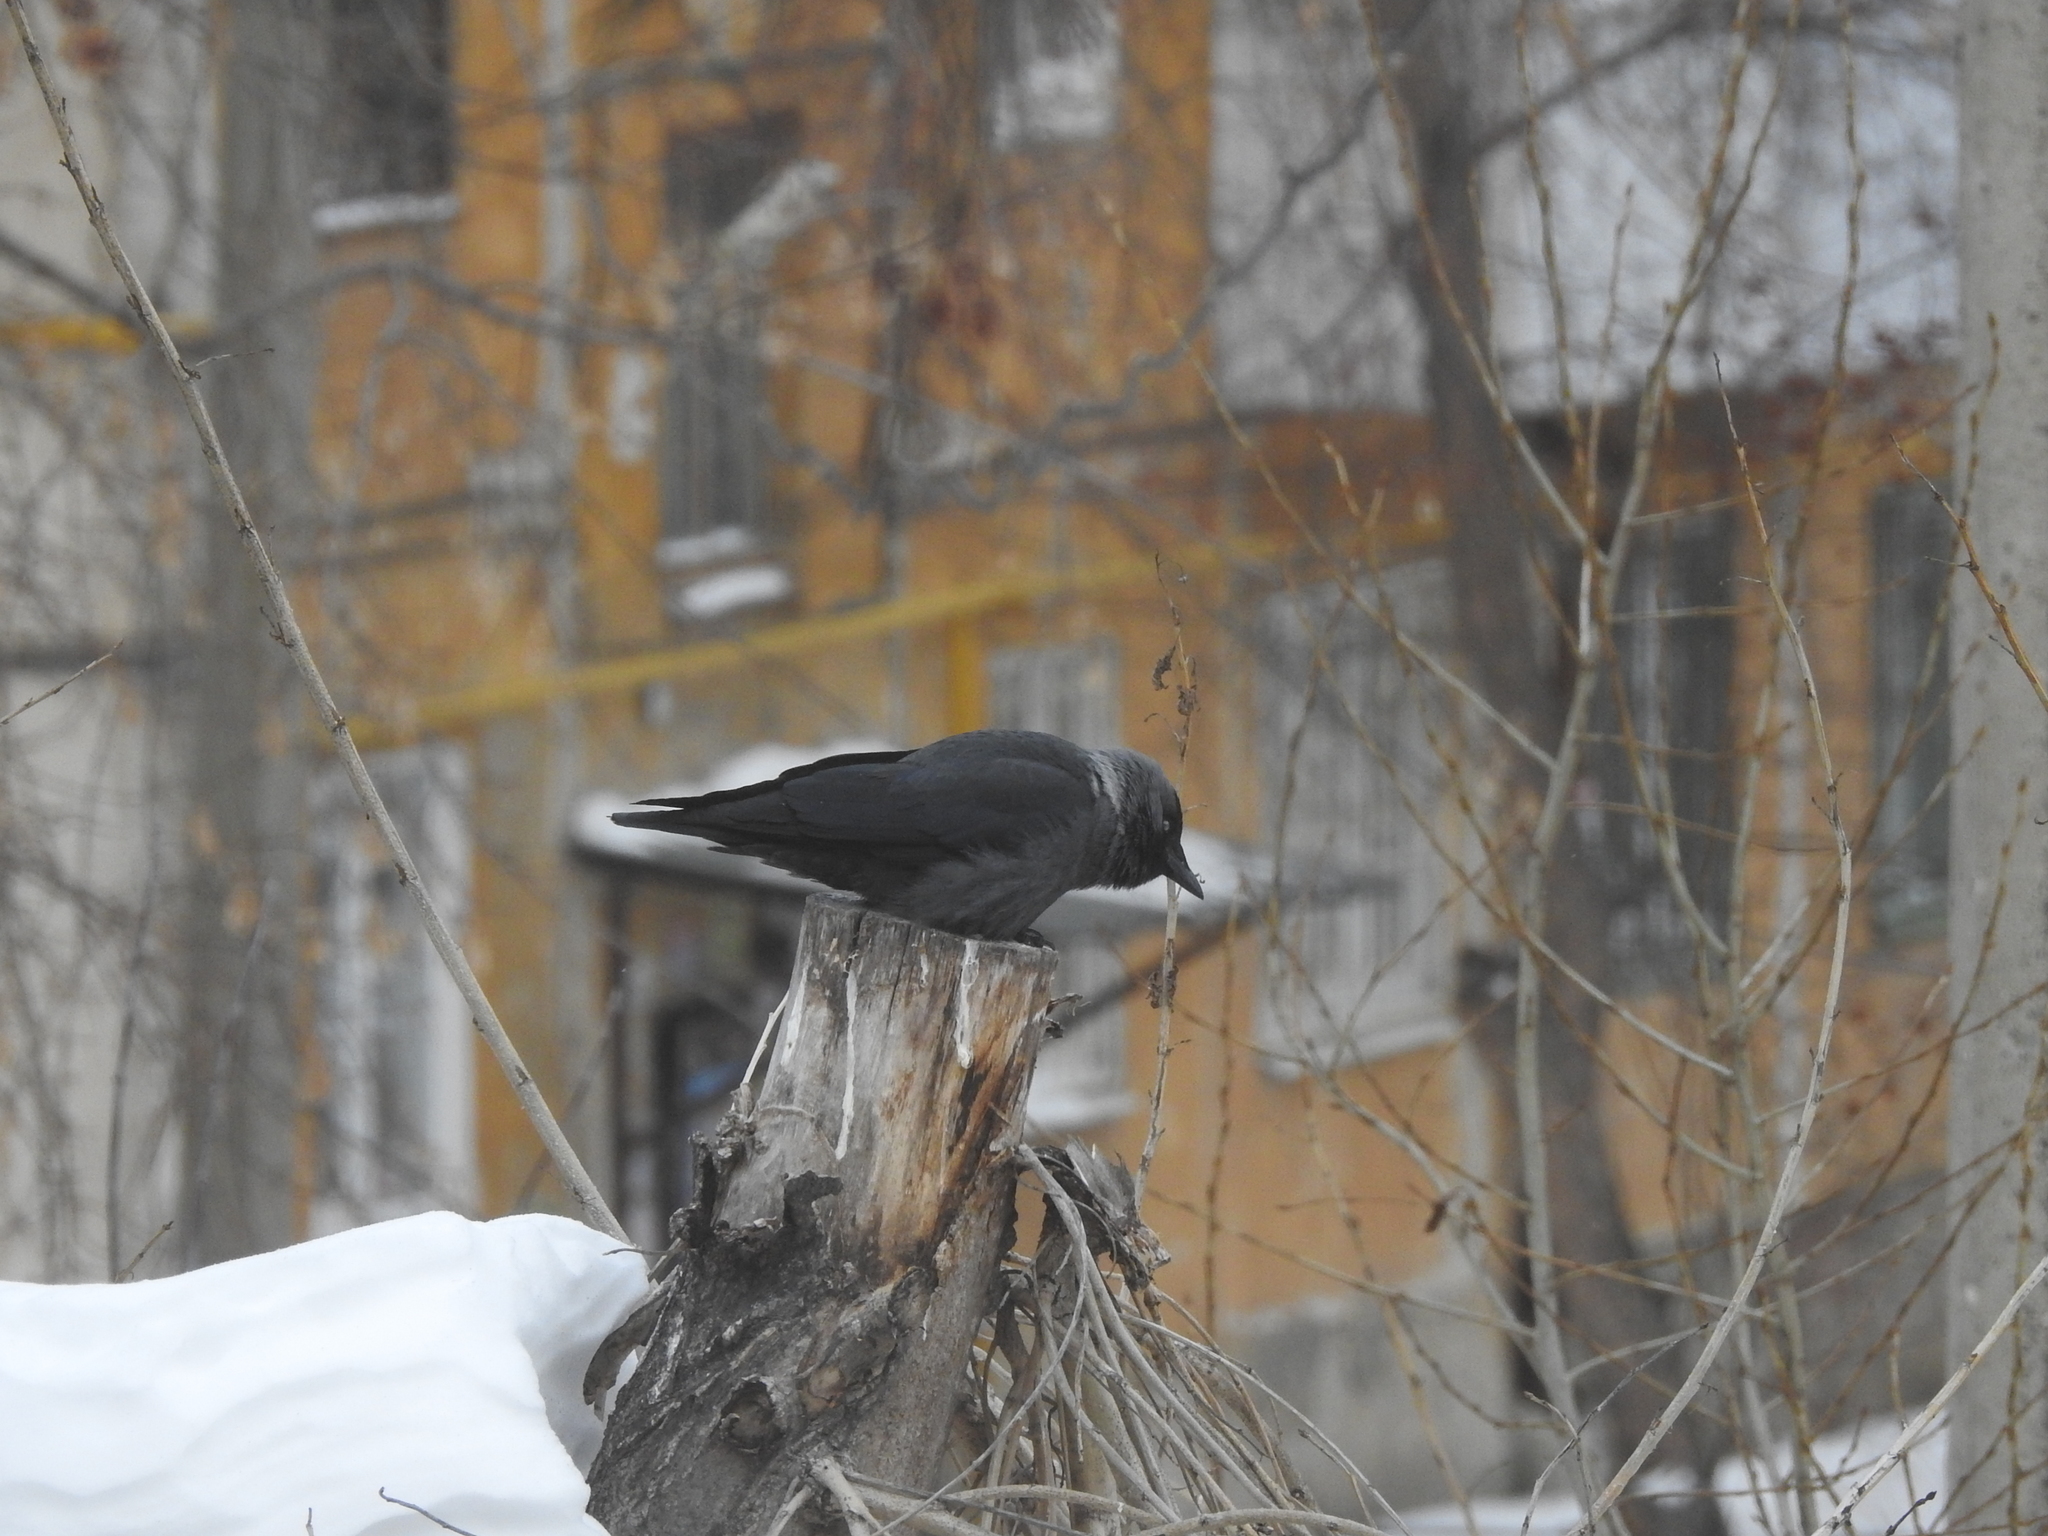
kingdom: Animalia
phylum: Chordata
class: Aves
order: Passeriformes
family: Corvidae
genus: Coloeus
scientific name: Coloeus monedula
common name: Western jackdaw
